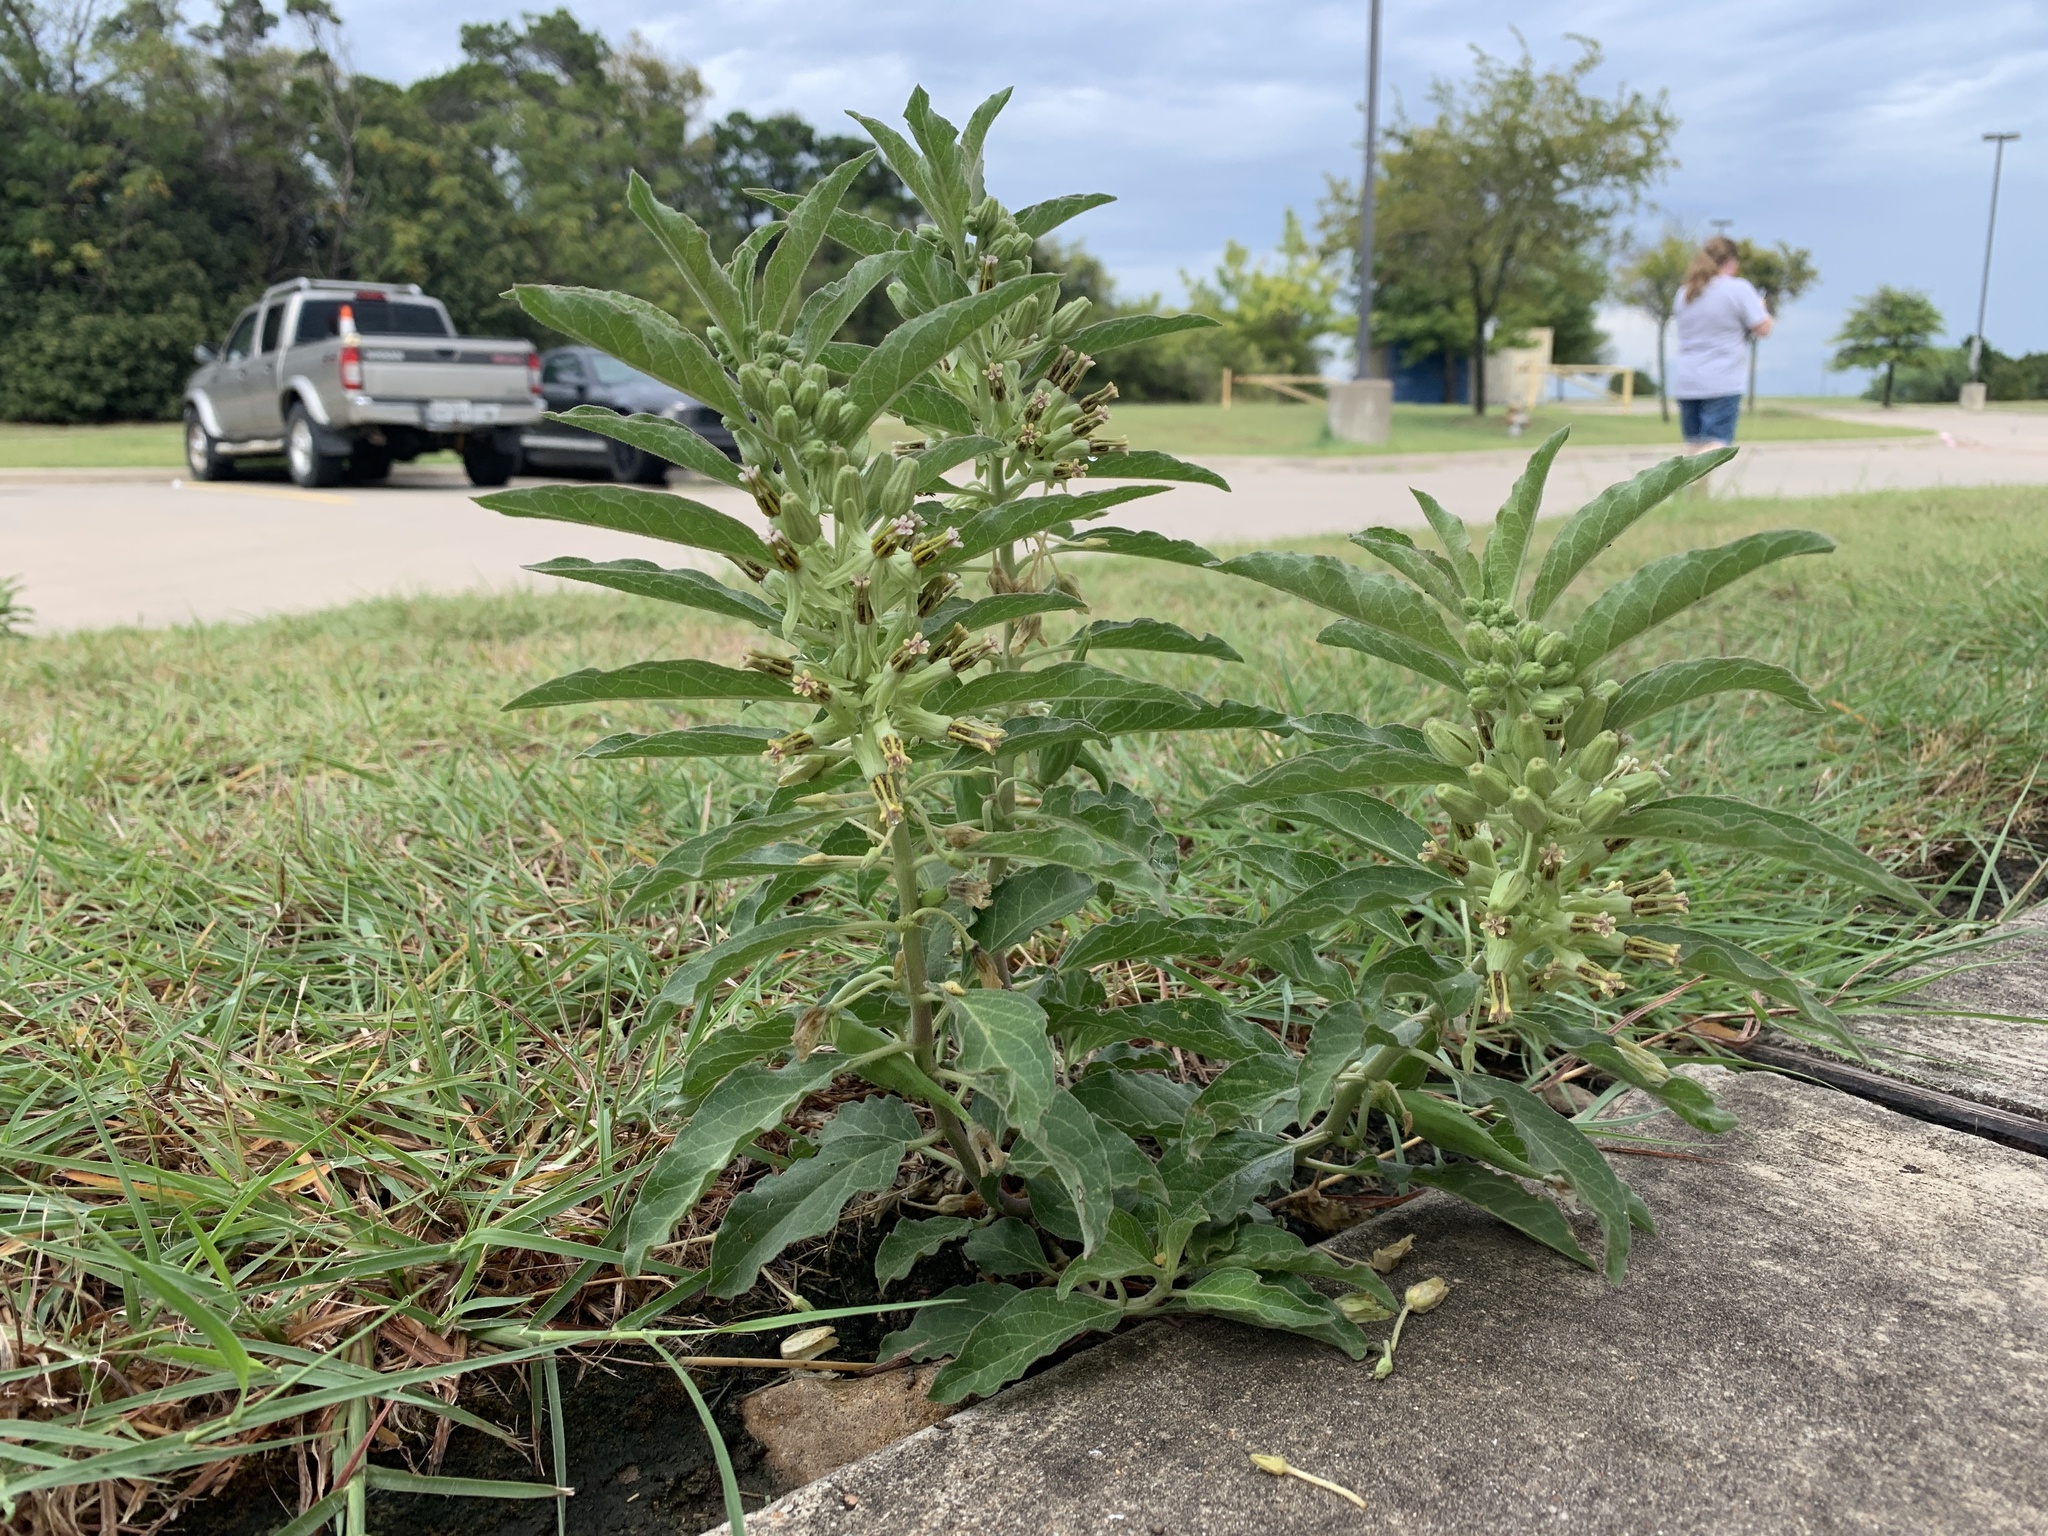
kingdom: Plantae
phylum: Tracheophyta
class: Magnoliopsida
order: Gentianales
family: Apocynaceae
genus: Asclepias
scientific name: Asclepias oenotheroides
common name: Zizotes milkweed
